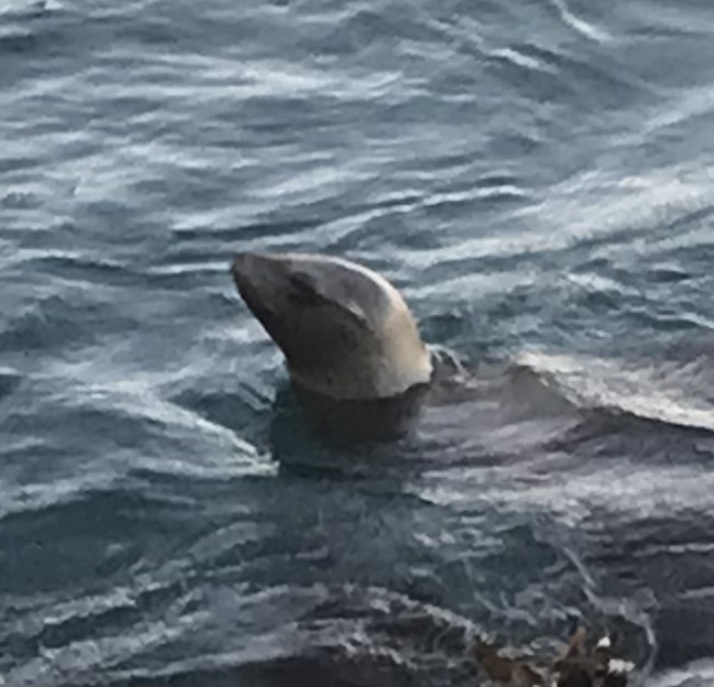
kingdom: Animalia
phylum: Chordata
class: Mammalia
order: Carnivora
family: Otariidae
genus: Zalophus
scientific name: Zalophus californianus
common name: California sea lion
